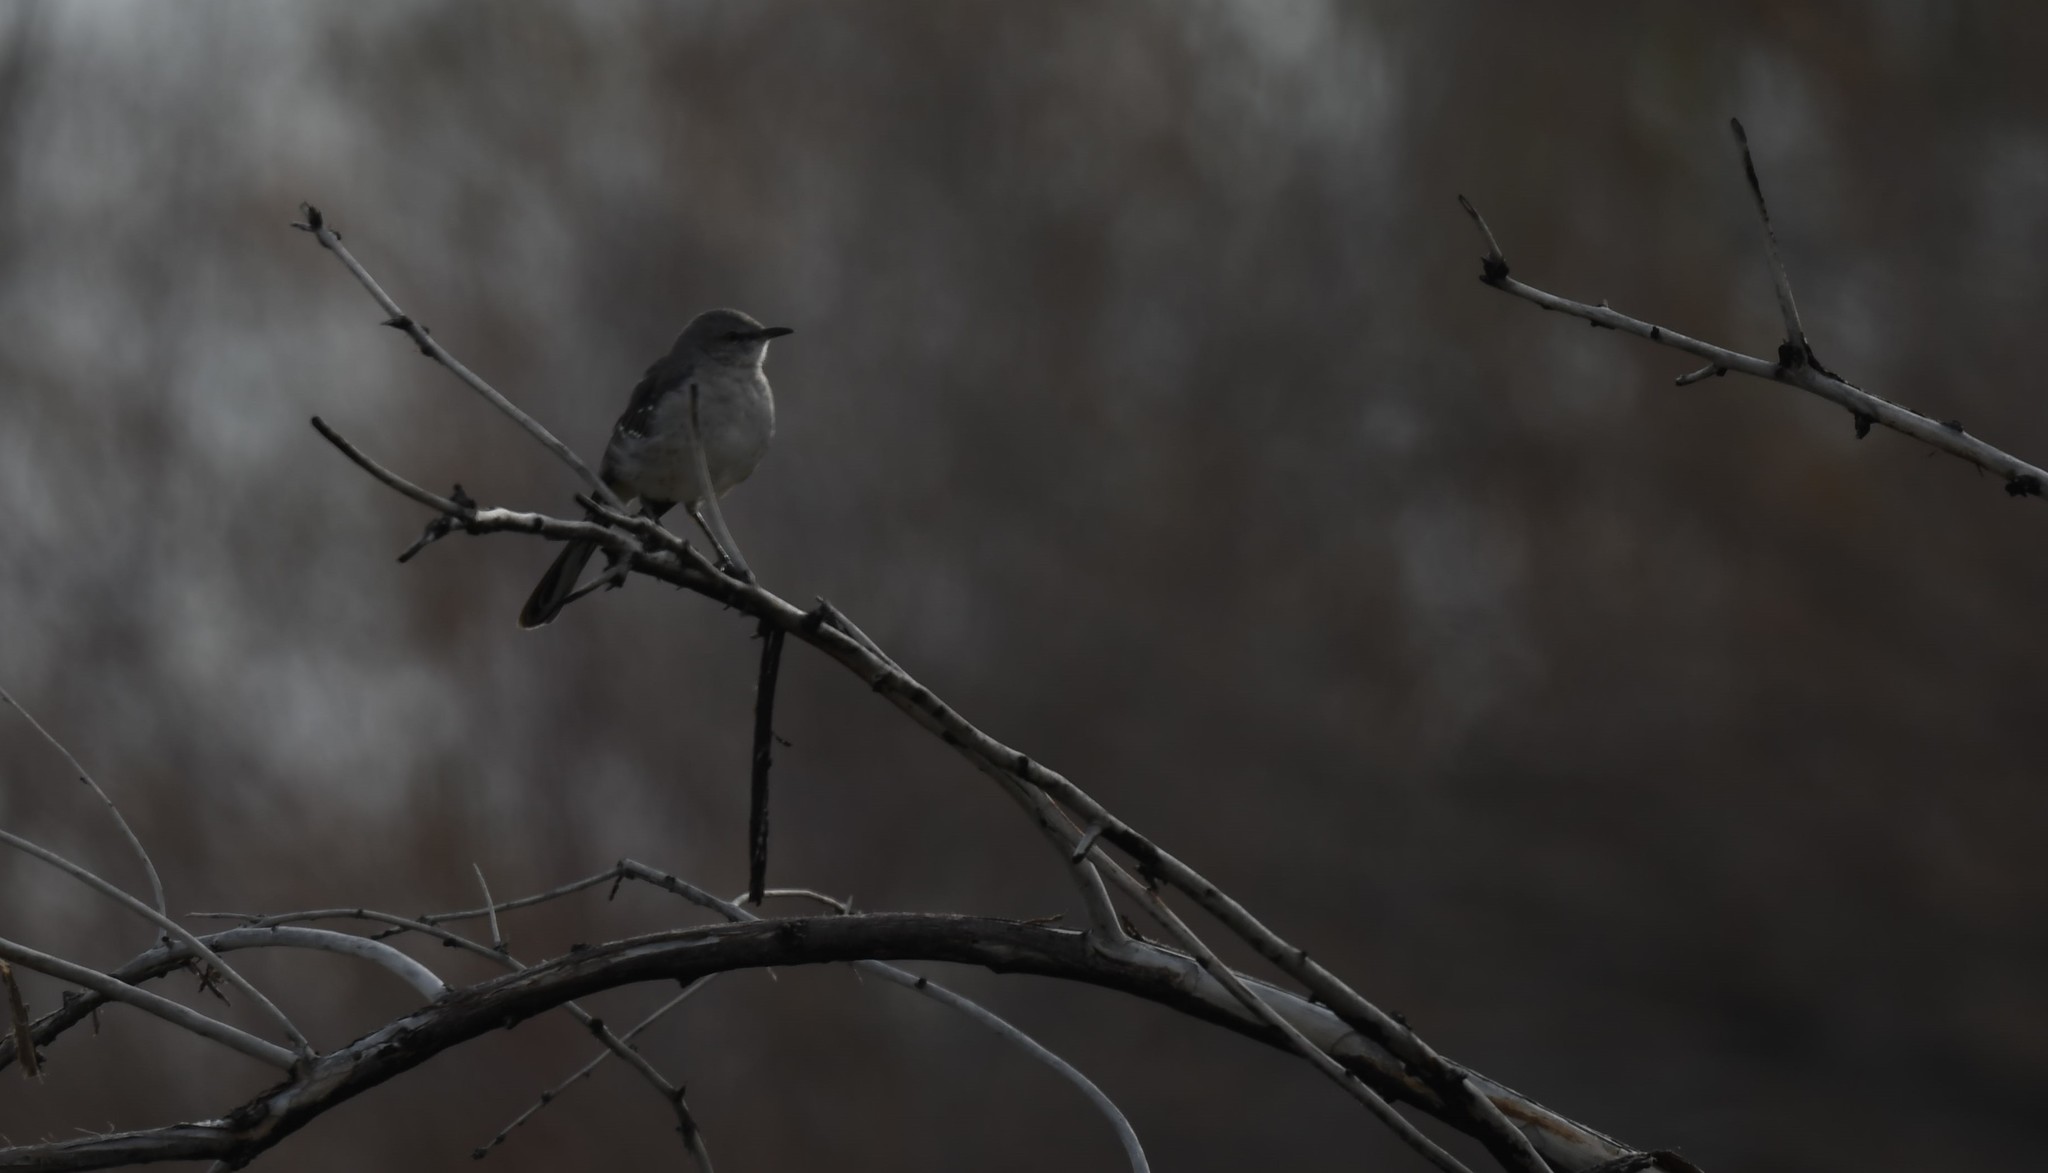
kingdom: Animalia
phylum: Chordata
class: Aves
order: Passeriformes
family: Mimidae
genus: Mimus
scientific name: Mimus polyglottos
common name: Northern mockingbird
